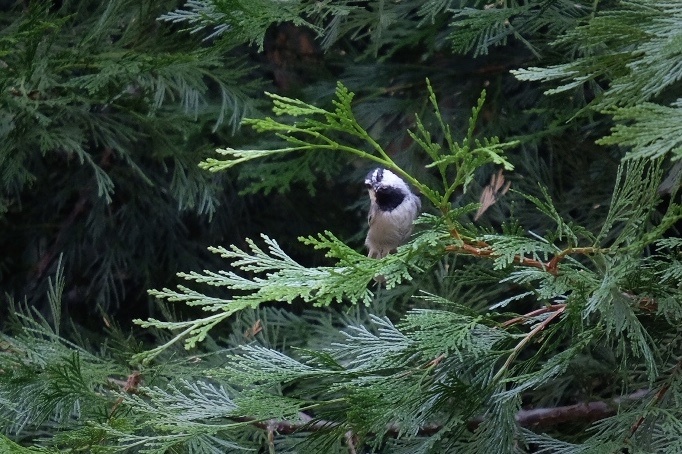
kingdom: Animalia
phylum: Chordata
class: Aves
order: Passeriformes
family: Paridae
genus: Poecile
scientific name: Poecile gambeli
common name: Mountain chickadee
